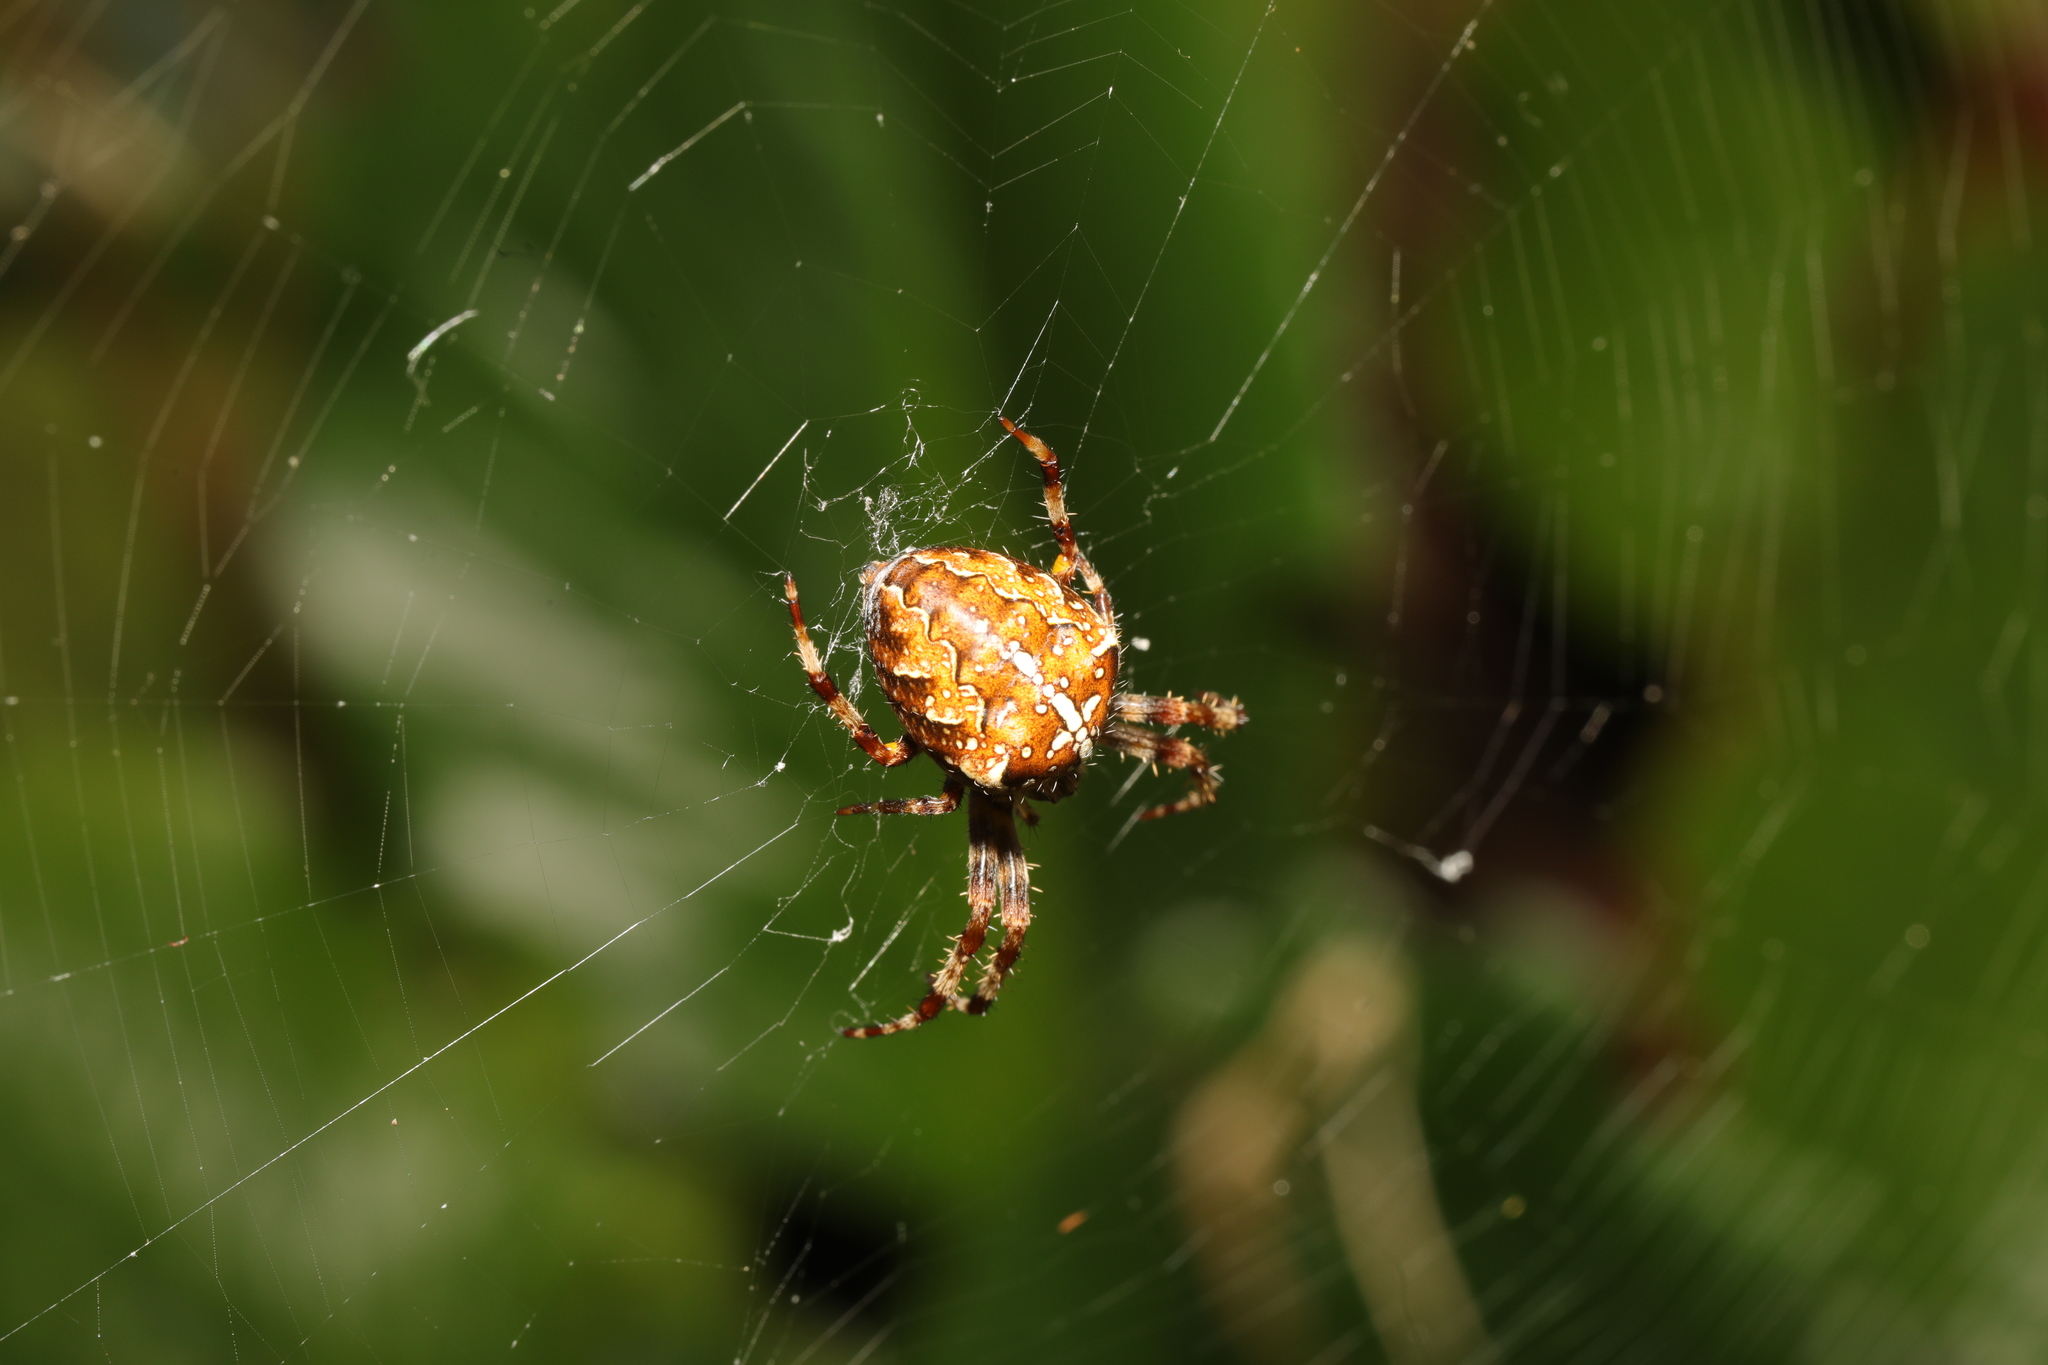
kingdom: Animalia
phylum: Arthropoda
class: Arachnida
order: Araneae
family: Araneidae
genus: Araneus
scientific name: Araneus diadematus
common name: Cross orbweaver
